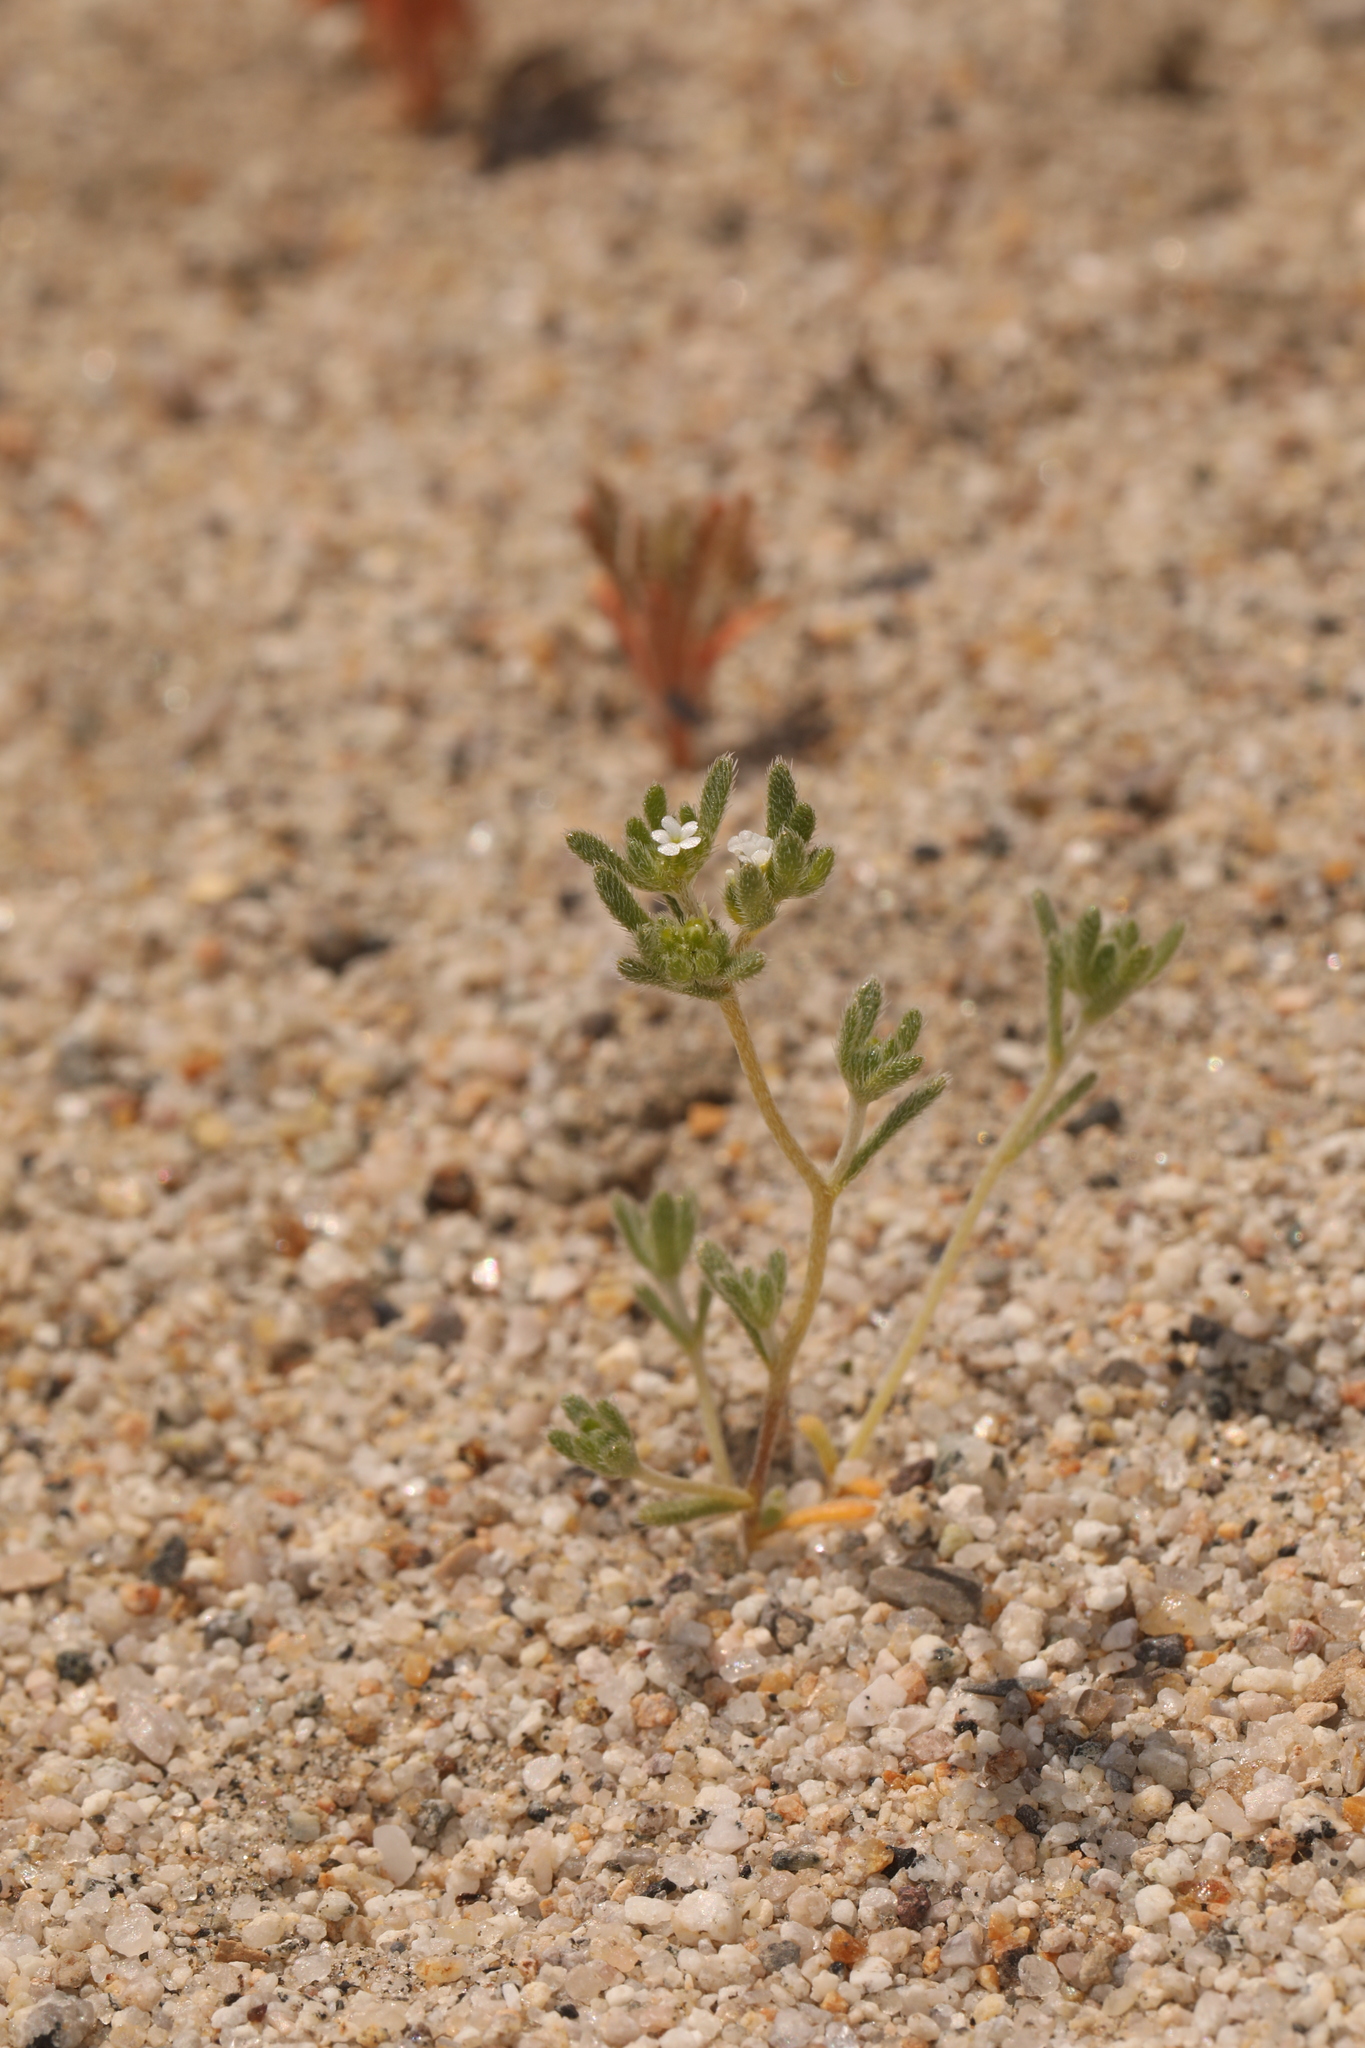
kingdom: Plantae
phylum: Tracheophyta
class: Magnoliopsida
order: Boraginales
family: Boraginaceae
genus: Eremocarya
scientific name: Eremocarya micrantha
